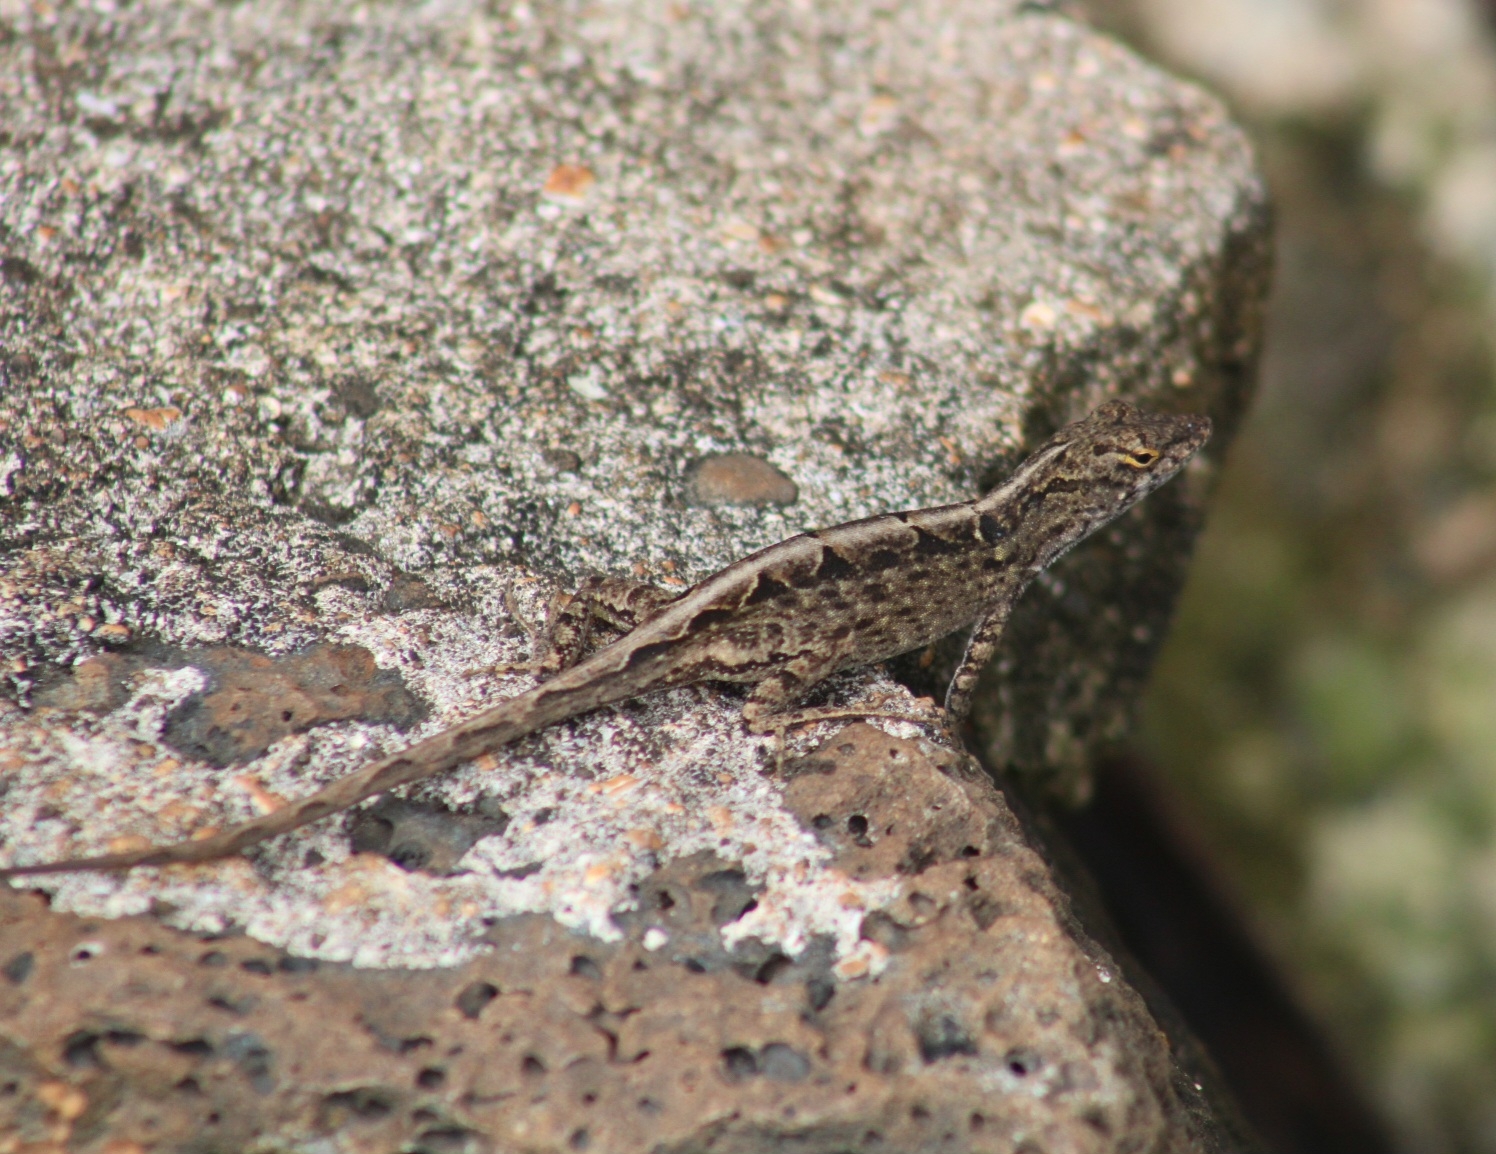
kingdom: Animalia
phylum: Chordata
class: Squamata
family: Dactyloidae
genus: Anolis
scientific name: Anolis sagrei
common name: Brown anole
